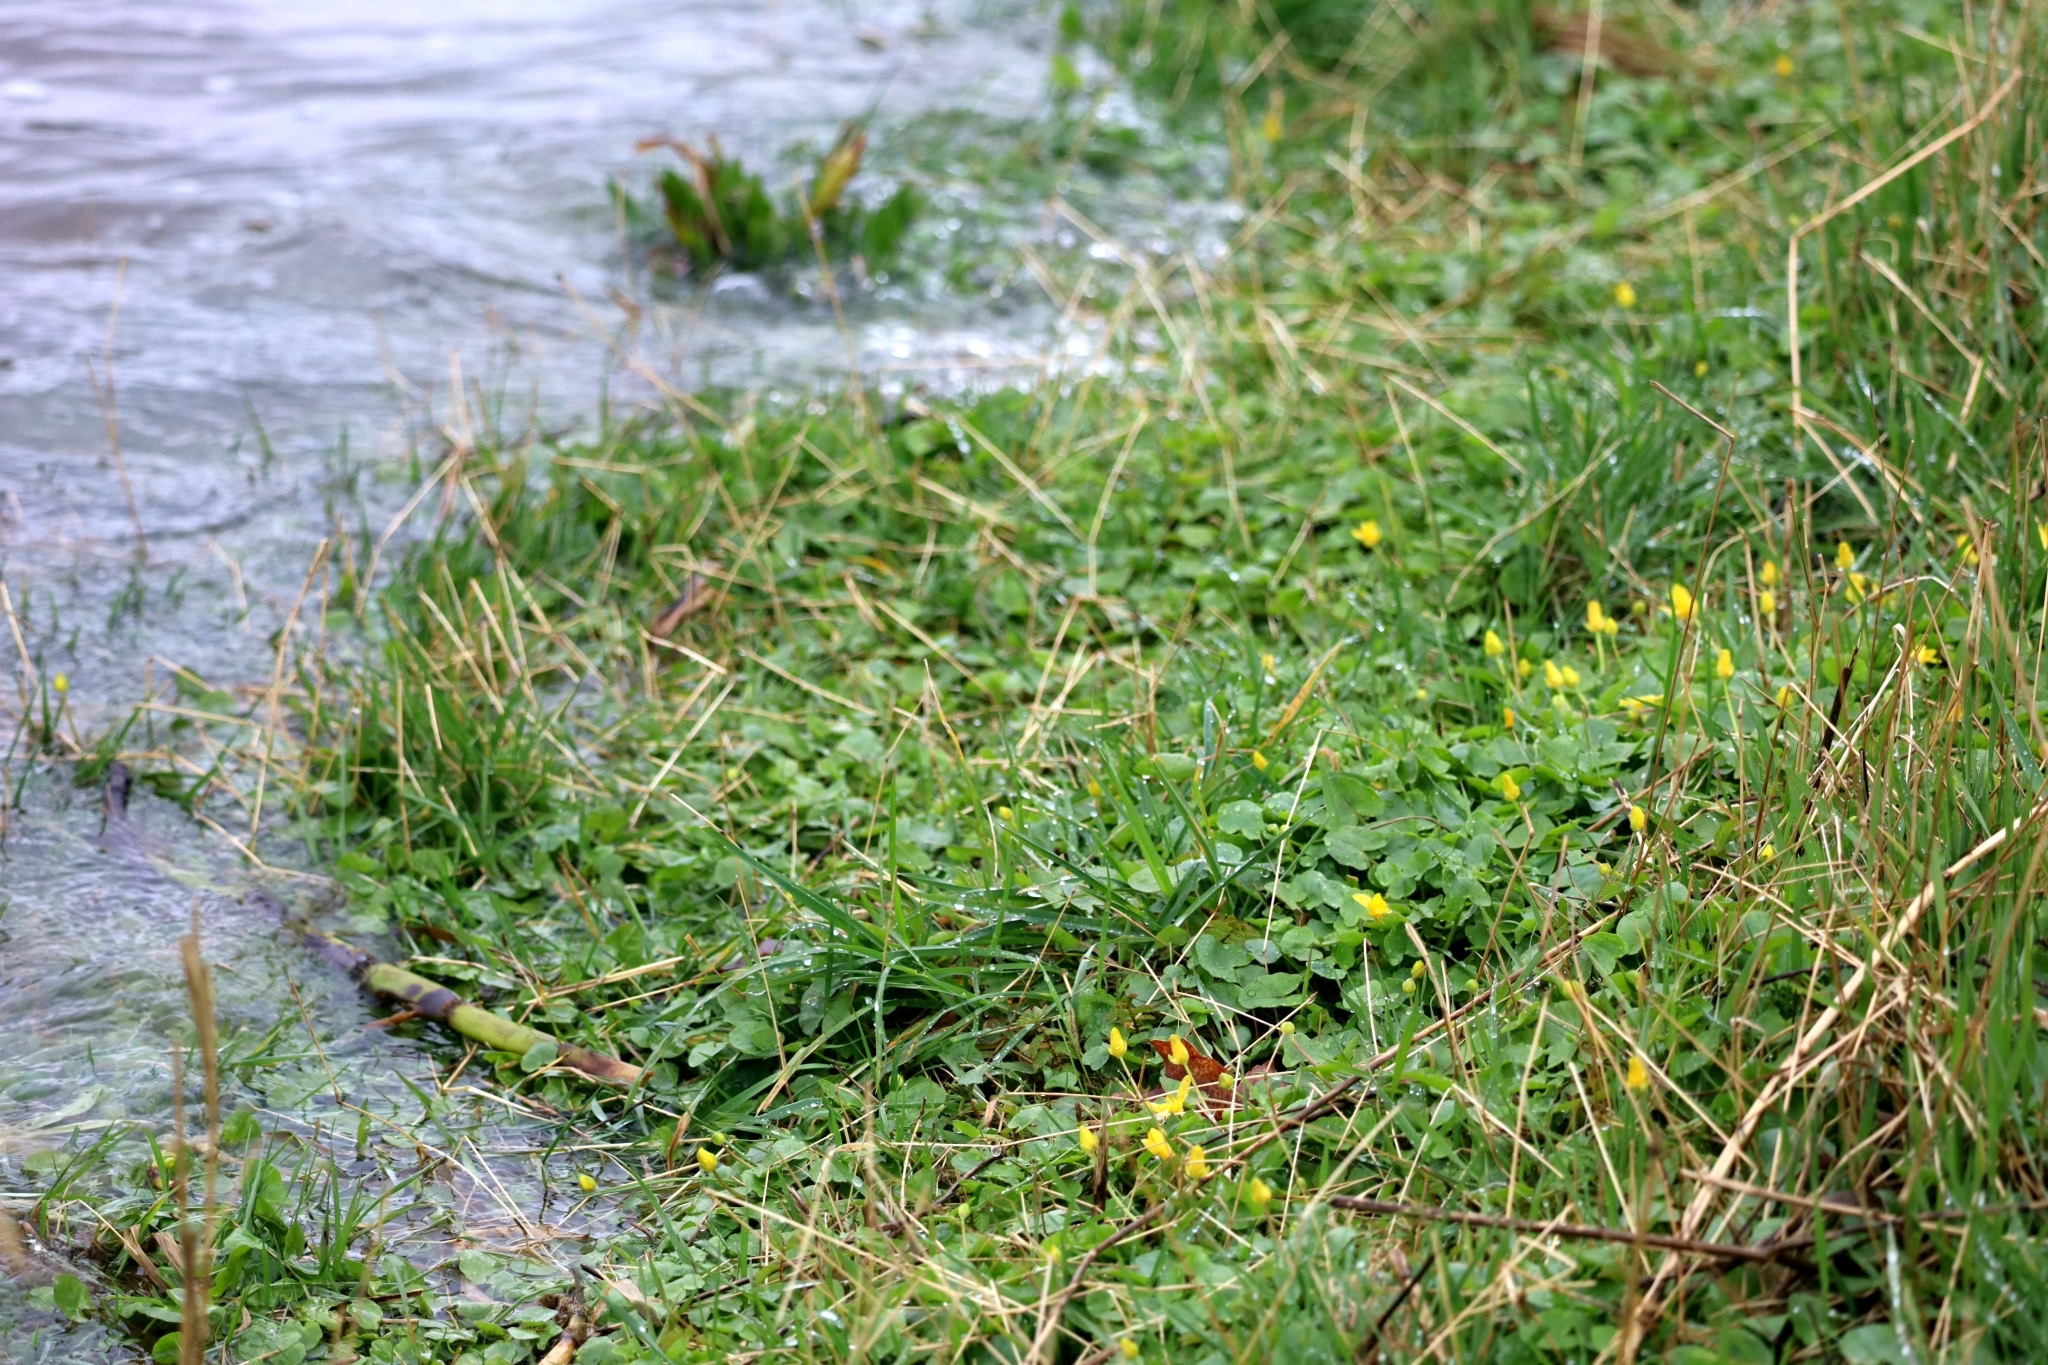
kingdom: Plantae
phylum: Tracheophyta
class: Magnoliopsida
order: Ranunculales
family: Ranunculaceae
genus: Ficaria
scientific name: Ficaria verna
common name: Lesser celandine
